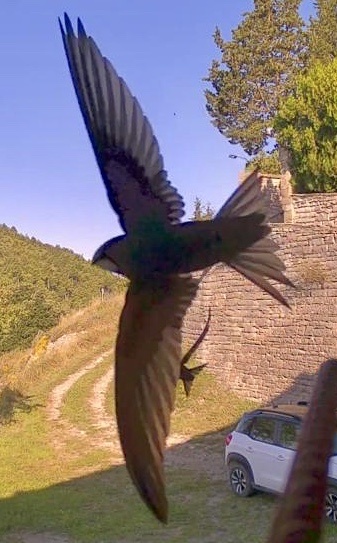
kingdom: Animalia
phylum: Chordata
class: Aves
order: Apodiformes
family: Apodidae
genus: Apus
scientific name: Apus apus
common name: Common swift
